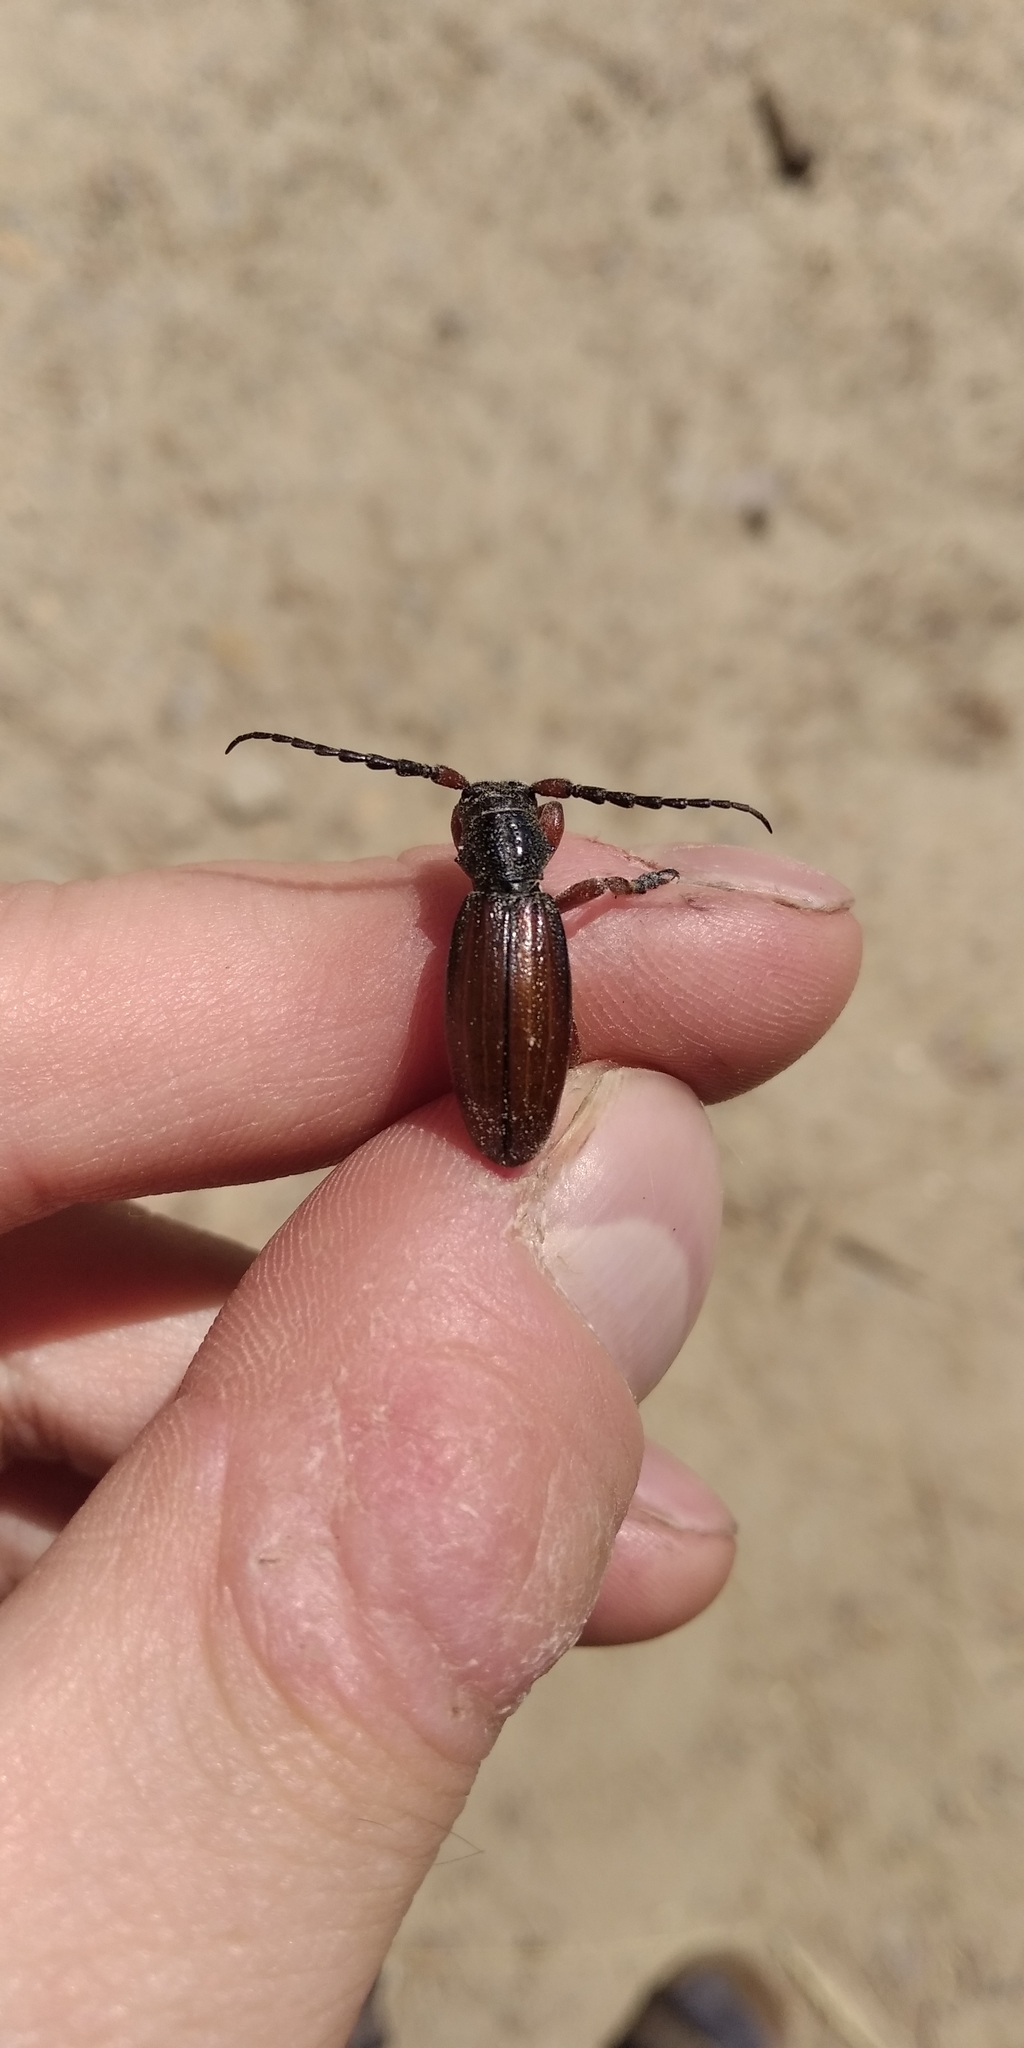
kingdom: Animalia
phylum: Arthropoda
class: Insecta
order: Coleoptera
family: Cerambycidae
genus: Dorcadion
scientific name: Dorcadion fulvum
